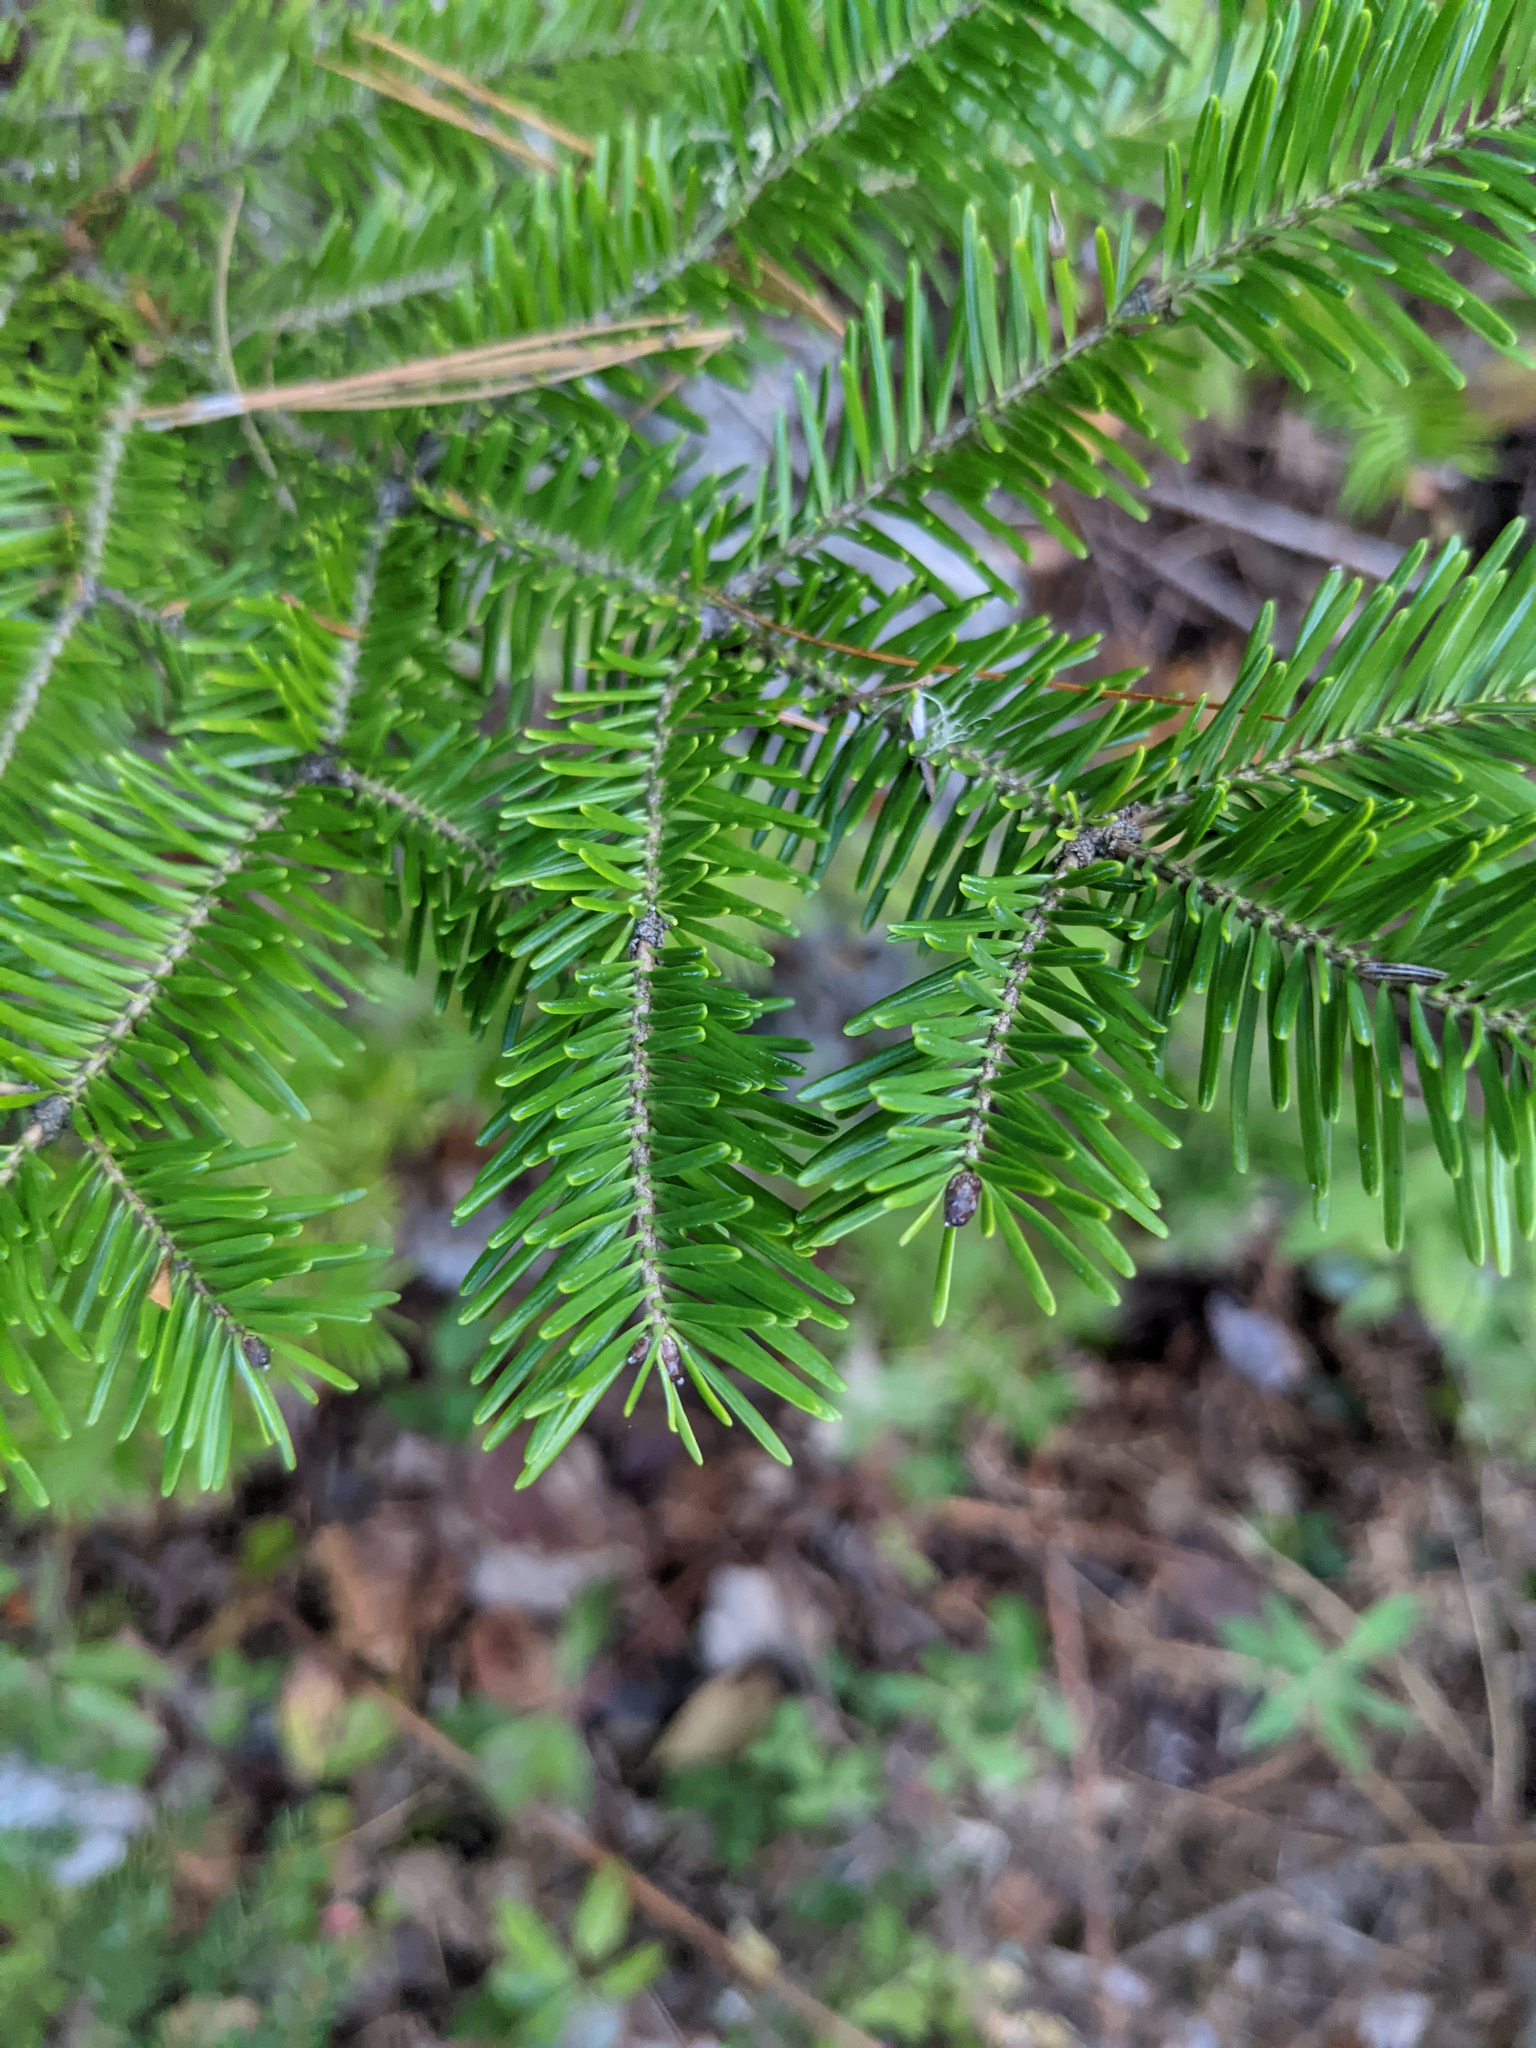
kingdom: Plantae
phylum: Tracheophyta
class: Pinopsida
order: Pinales
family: Pinaceae
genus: Abies
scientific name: Abies balsamea
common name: Balsam fir
